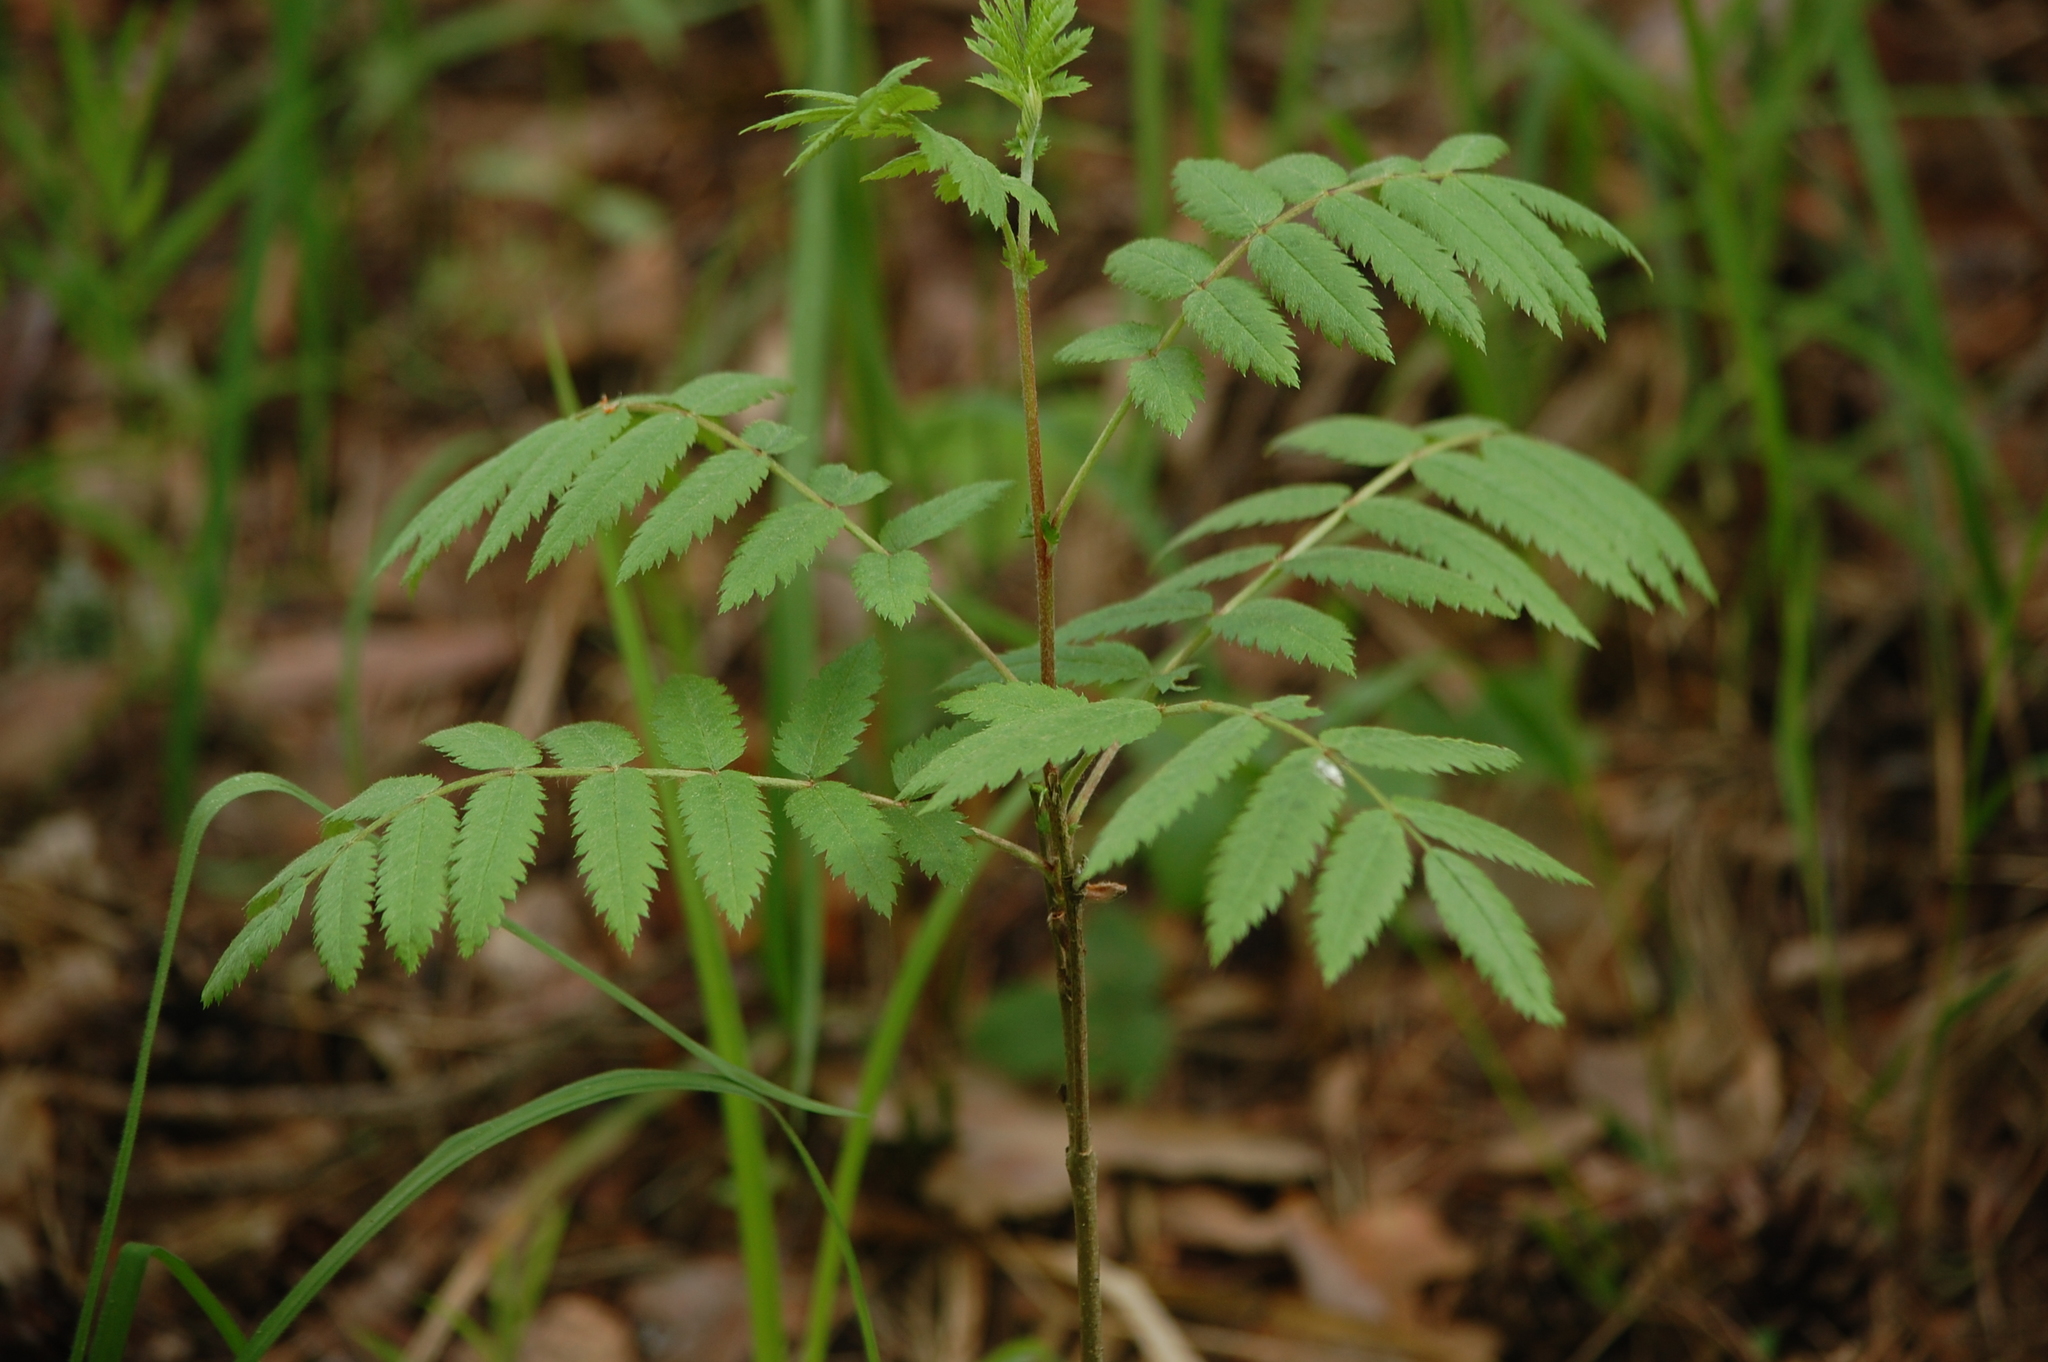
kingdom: Plantae
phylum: Tracheophyta
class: Magnoliopsida
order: Rosales
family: Rosaceae
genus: Sorbus
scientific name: Sorbus aucuparia
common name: Rowan
